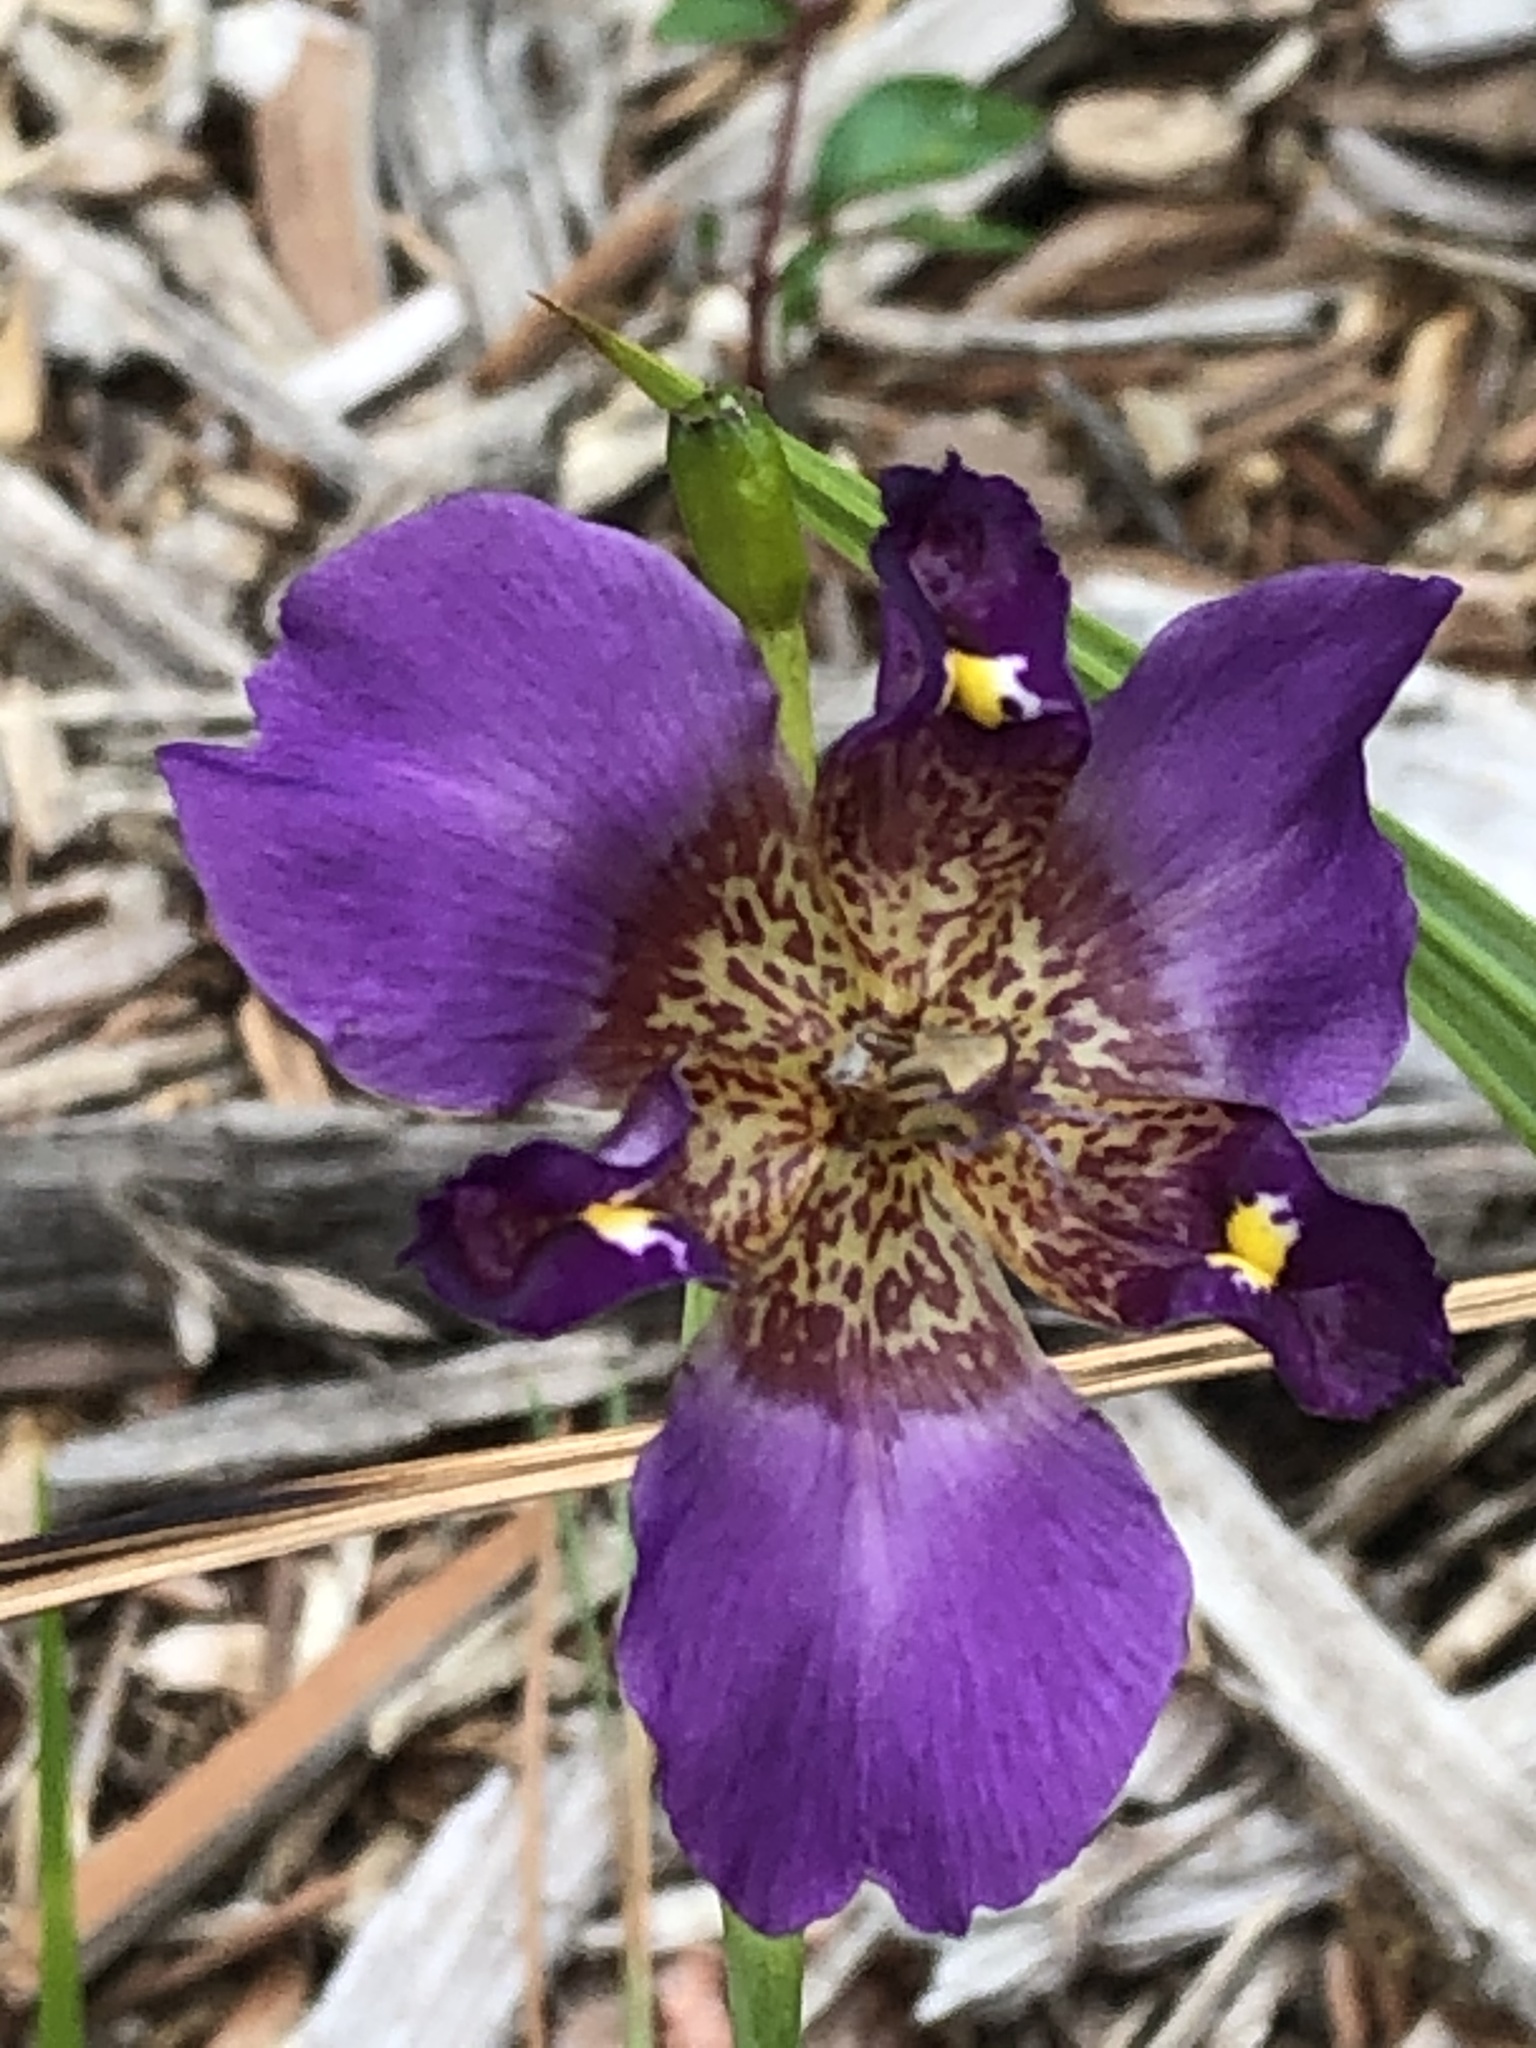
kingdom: Plantae
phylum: Tracheophyta
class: Liliopsida
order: Asparagales
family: Iridaceae
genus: Alophia
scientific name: Alophia drummondii
